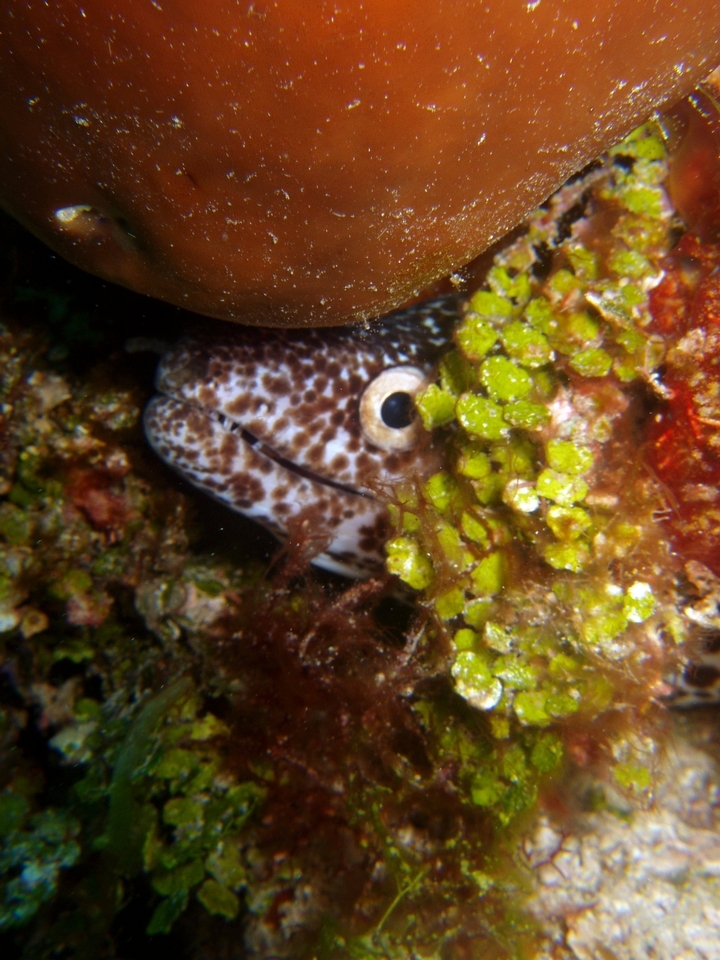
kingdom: Animalia
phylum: Chordata
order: Anguilliformes
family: Muraenidae
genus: Gymnothorax
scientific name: Gymnothorax moringa
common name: Spotted moray
